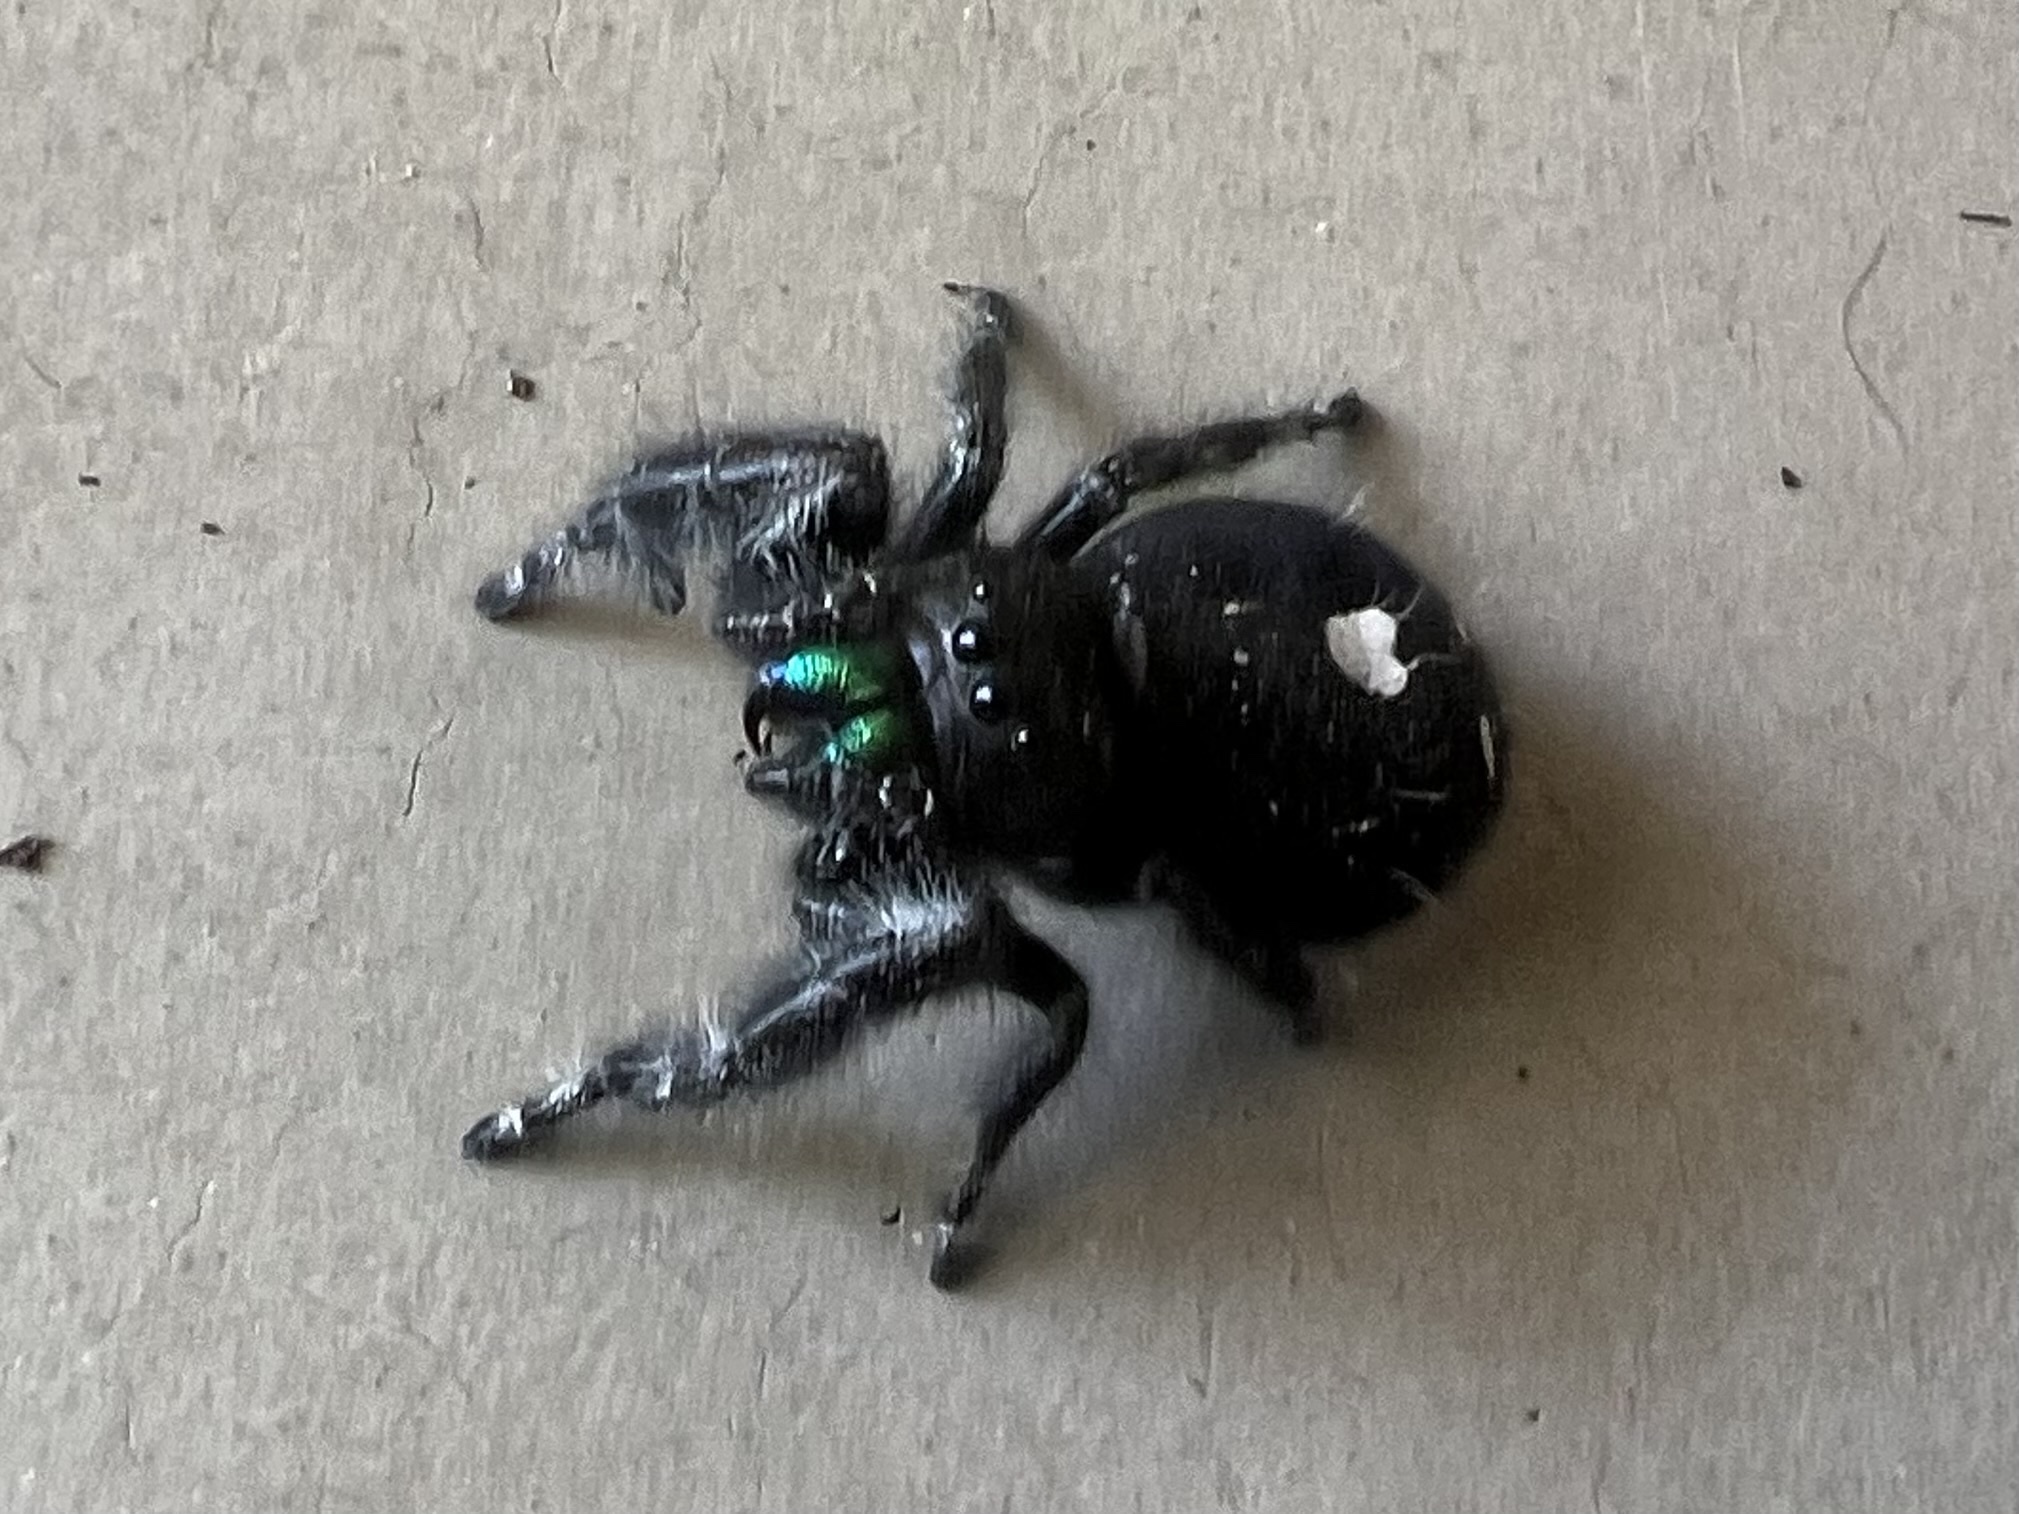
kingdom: Animalia
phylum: Arthropoda
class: Arachnida
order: Araneae
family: Salticidae
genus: Phidippus
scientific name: Phidippus audax
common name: Bold jumper
